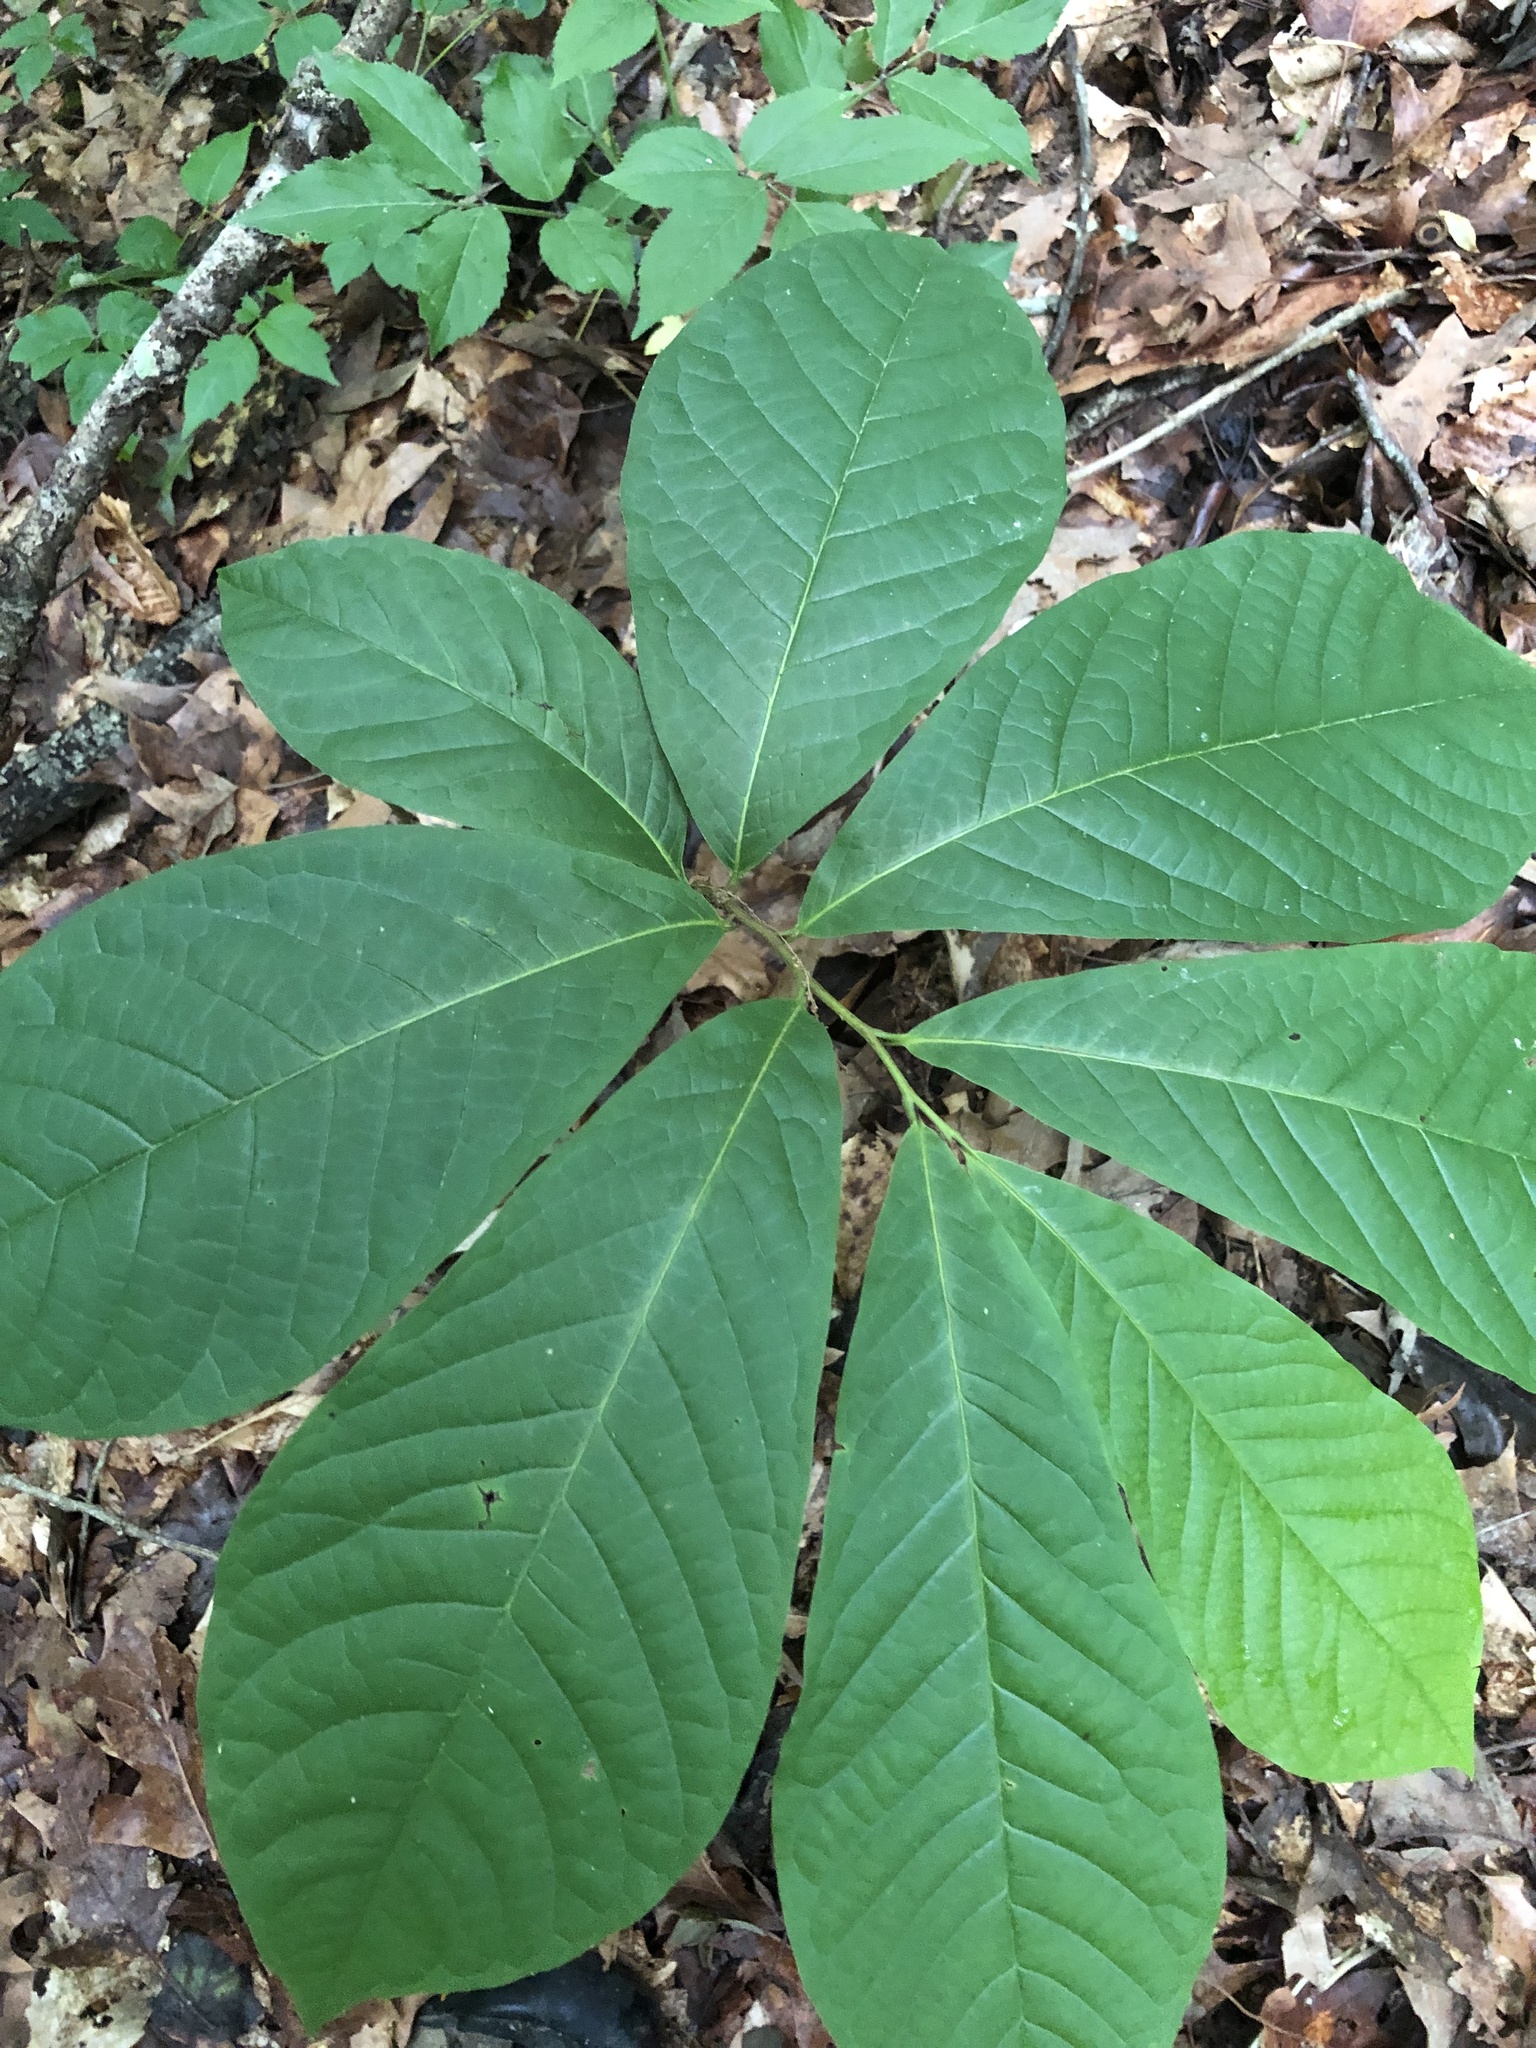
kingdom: Plantae
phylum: Tracheophyta
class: Magnoliopsida
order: Magnoliales
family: Annonaceae
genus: Asimina
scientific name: Asimina triloba
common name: Dog-banana
